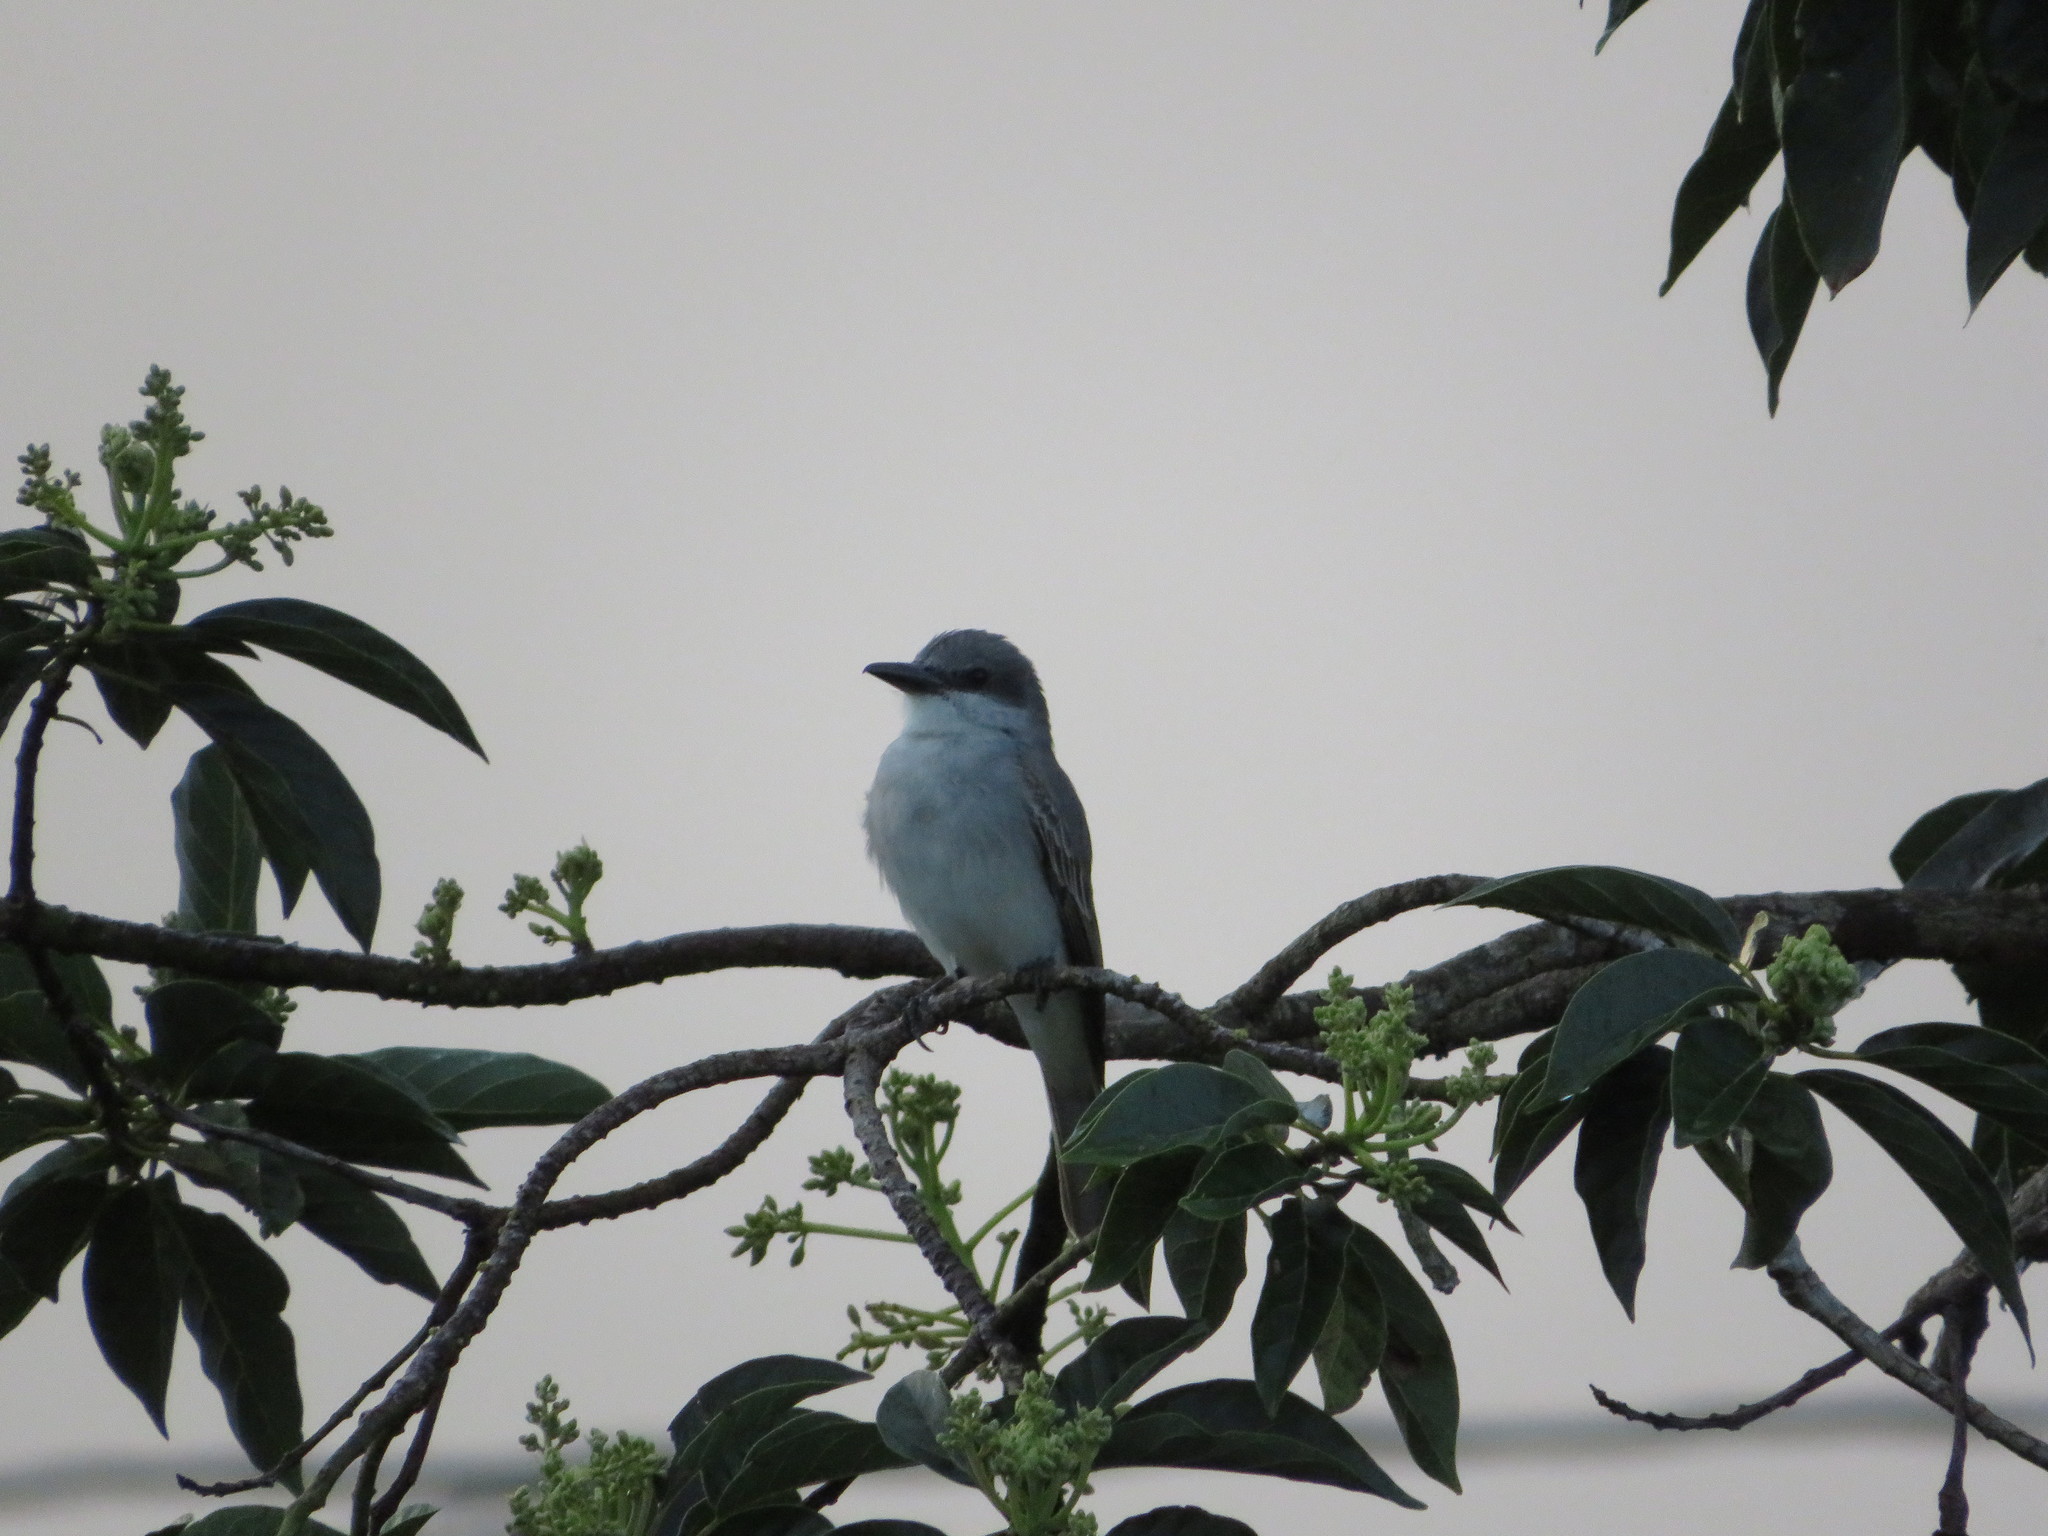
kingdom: Animalia
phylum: Chordata
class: Aves
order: Passeriformes
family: Tyrannidae
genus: Tyrannus
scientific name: Tyrannus dominicensis
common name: Gray kingbird
